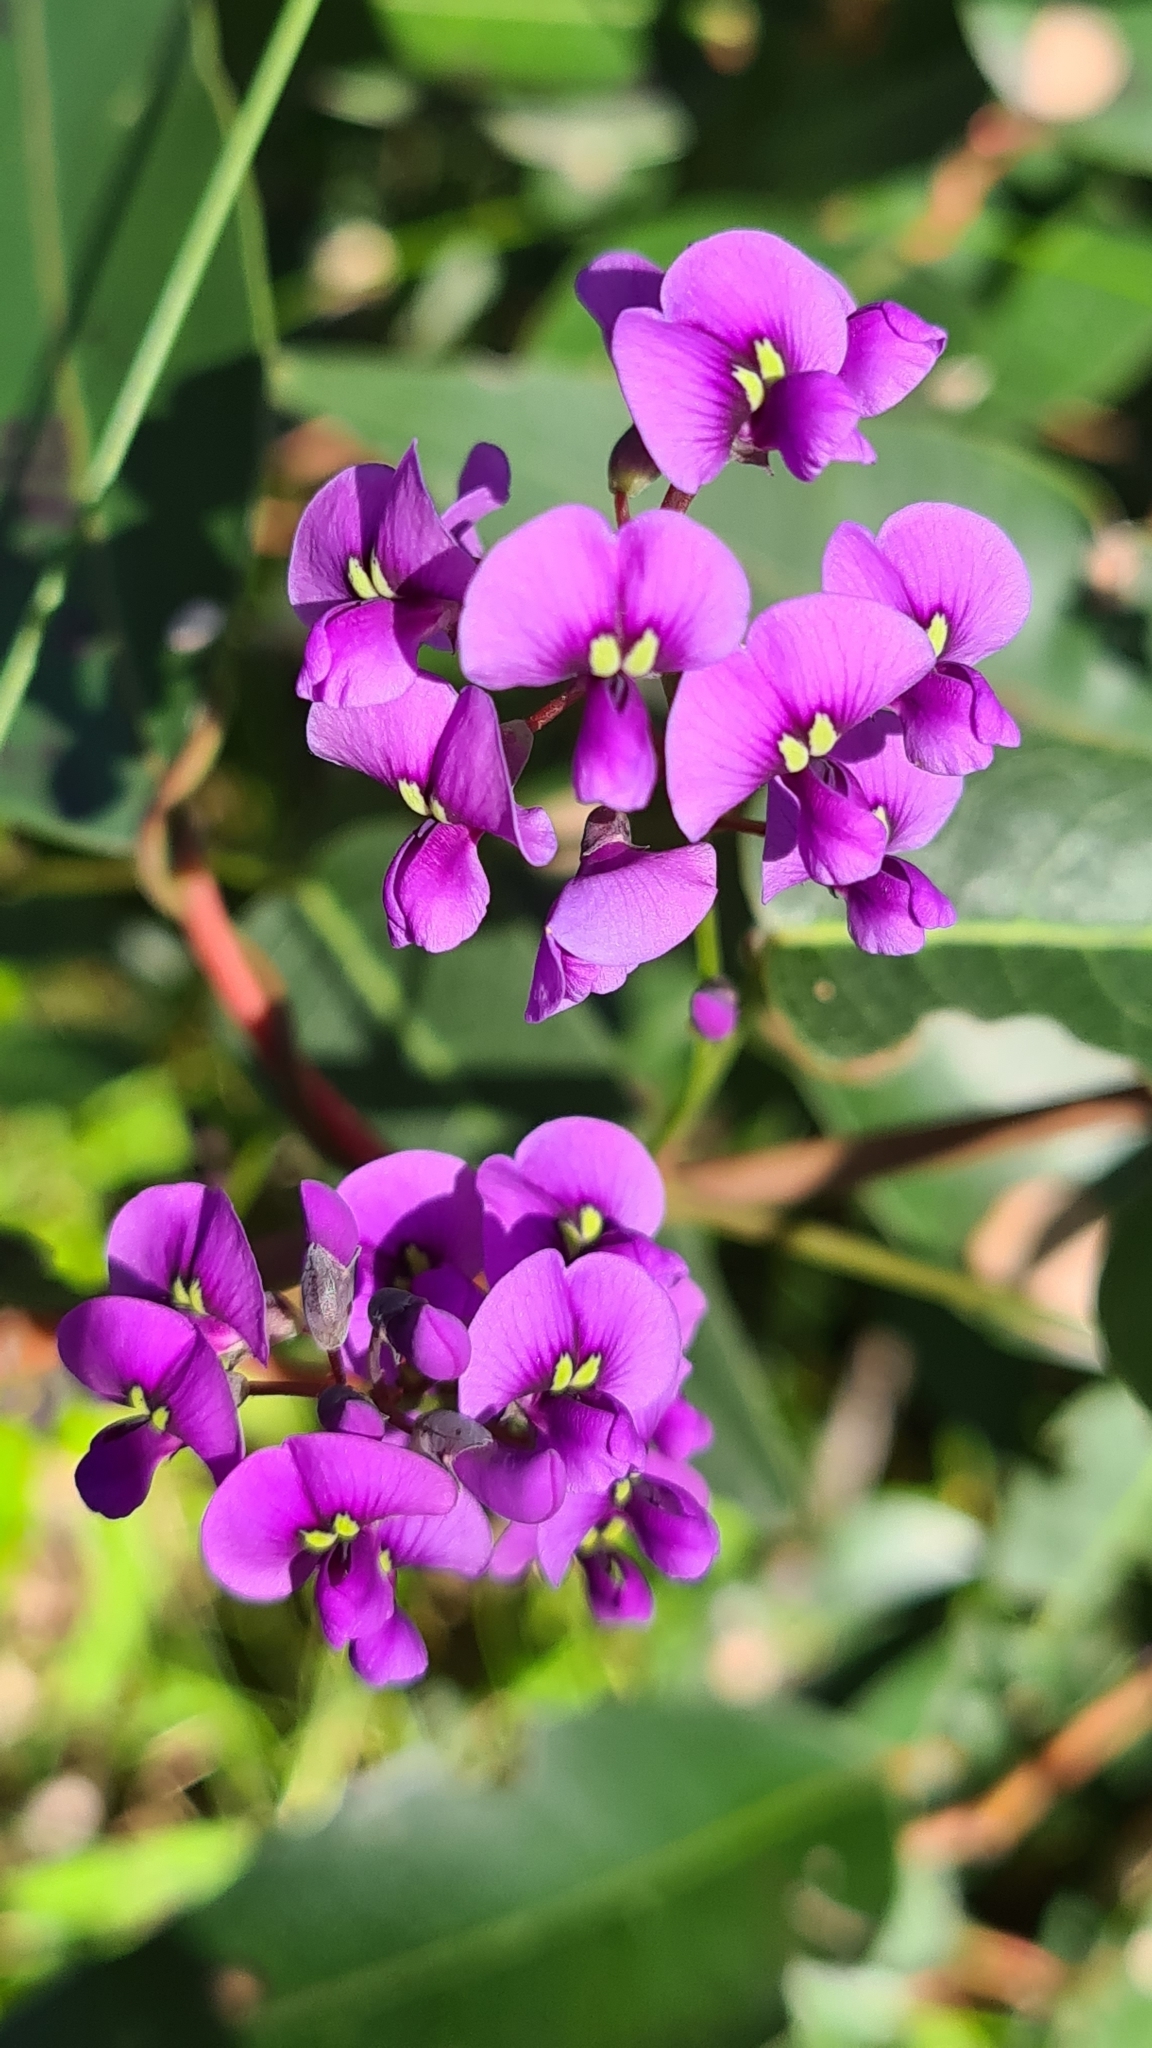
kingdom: Plantae
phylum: Tracheophyta
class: Magnoliopsida
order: Fabales
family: Fabaceae
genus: Hardenbergia
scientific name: Hardenbergia violacea
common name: Coral-pea
